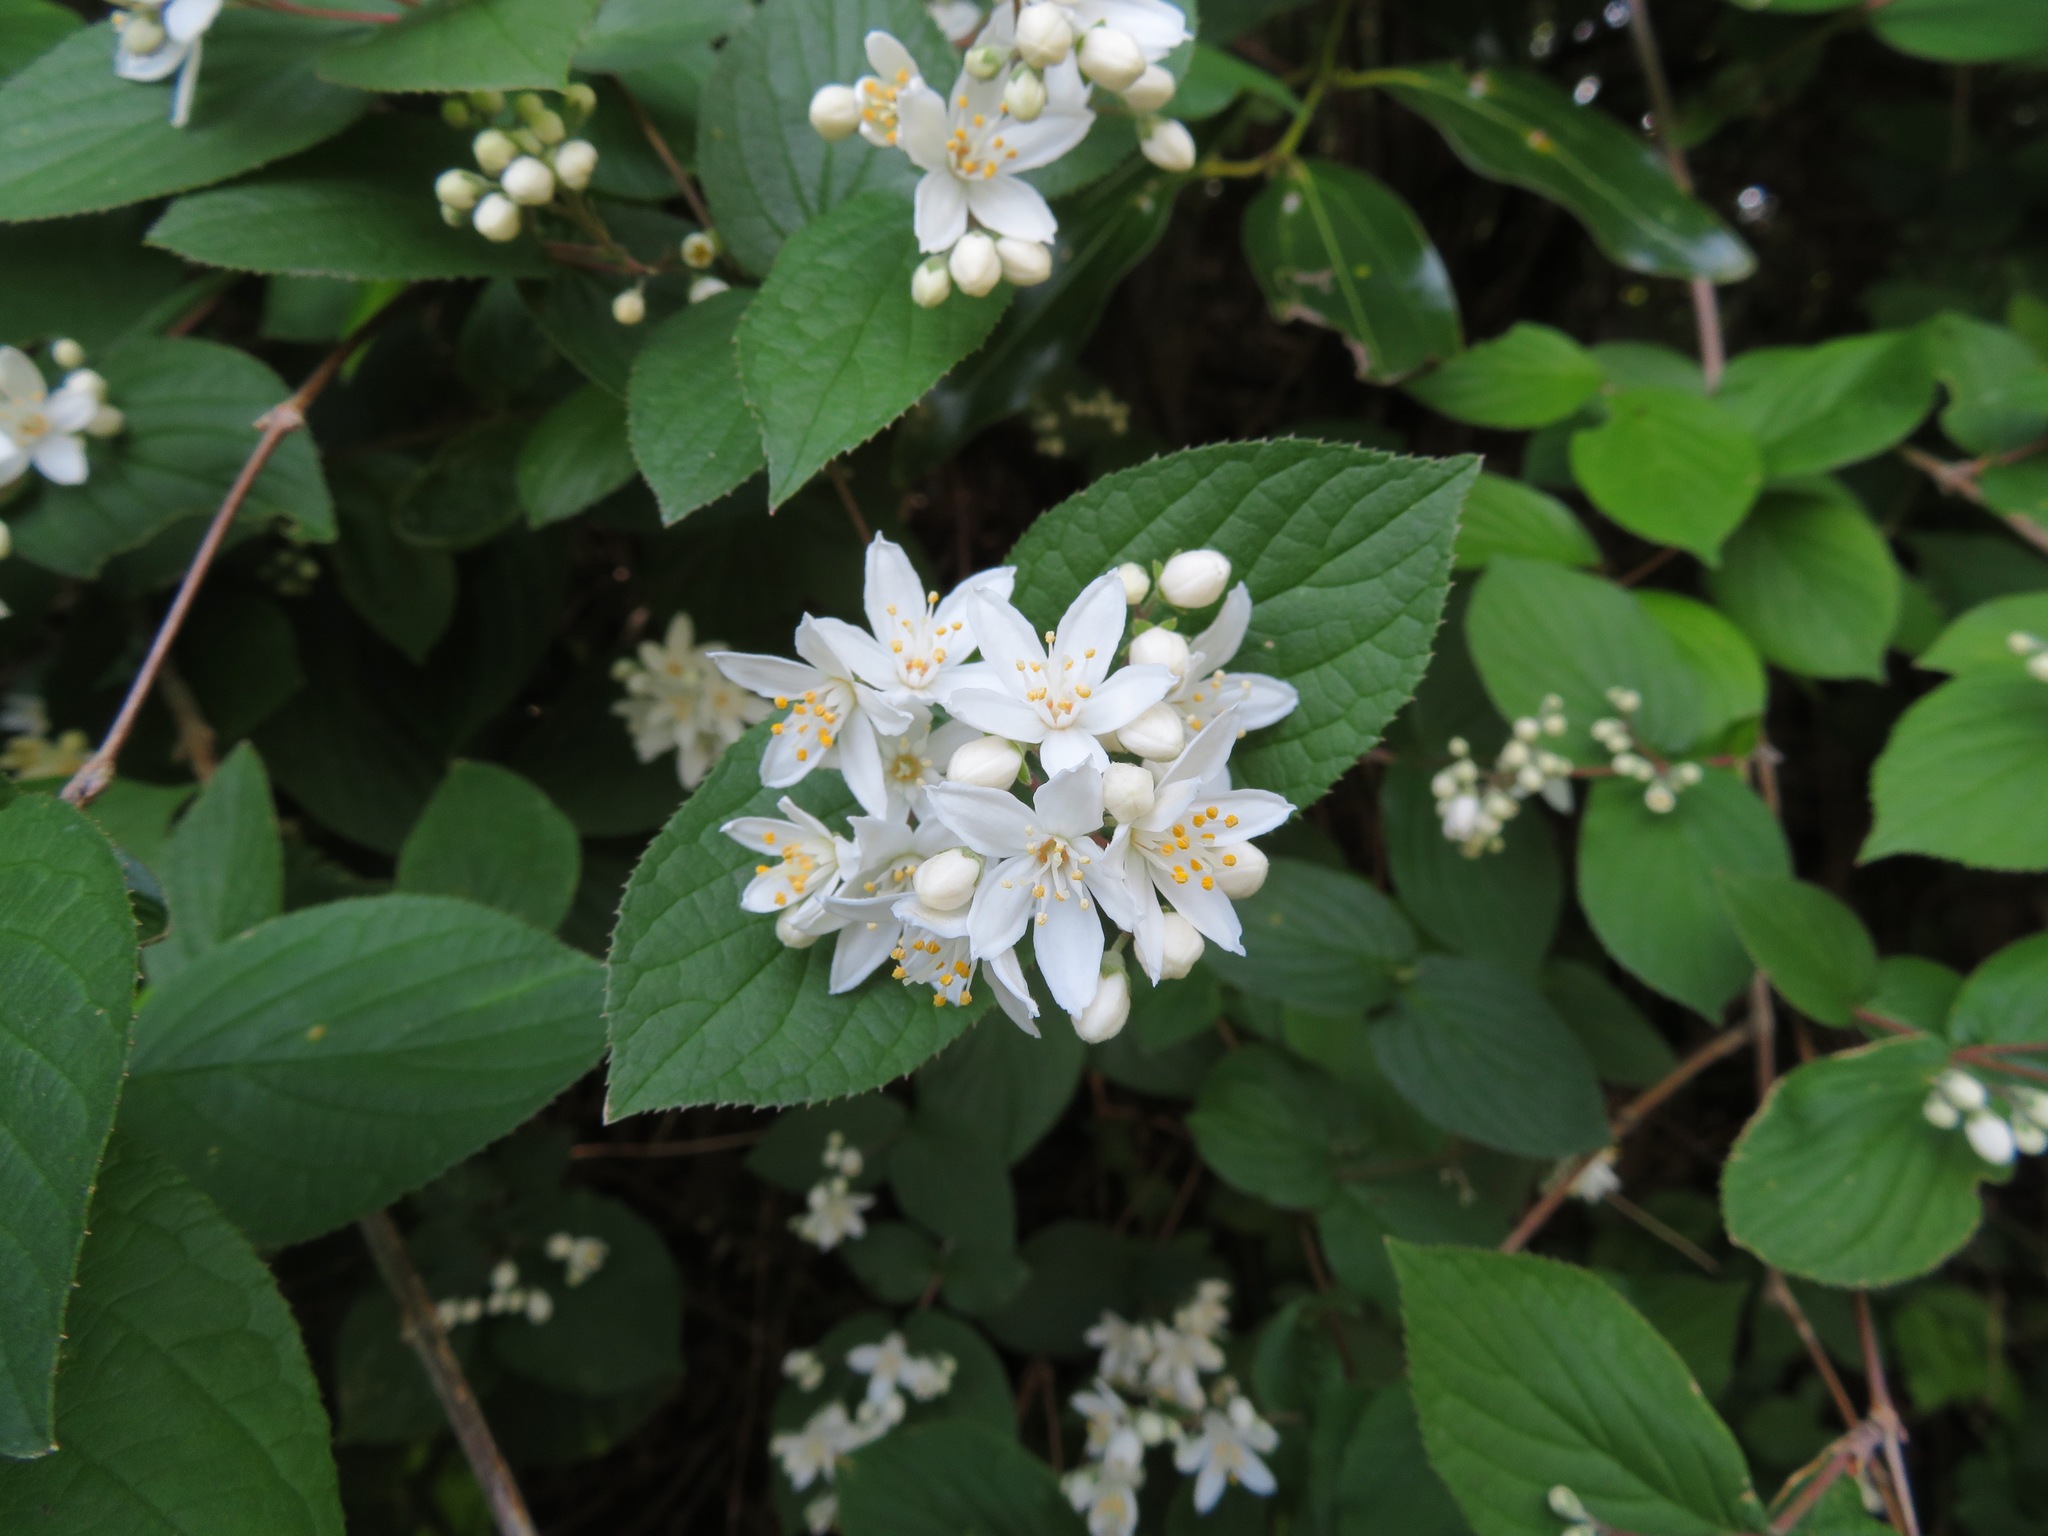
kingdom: Plantae
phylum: Tracheophyta
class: Magnoliopsida
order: Cornales
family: Hydrangeaceae
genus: Deutzia
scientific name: Deutzia scabra
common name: Deutzia
